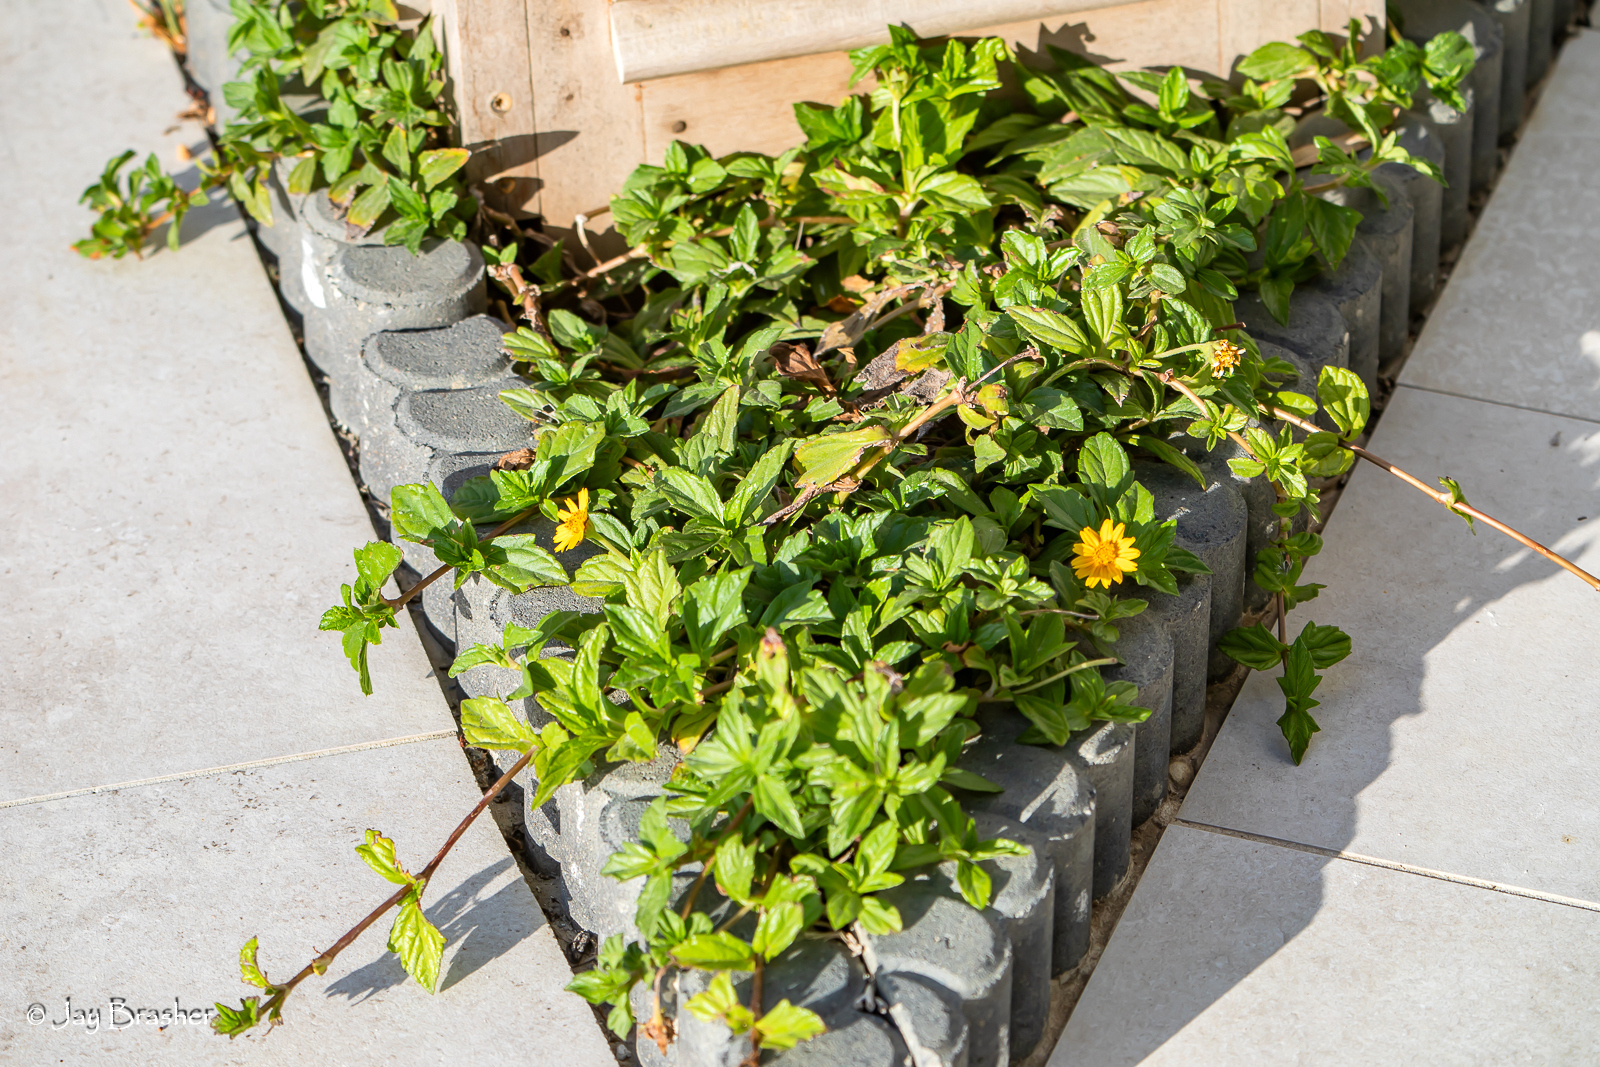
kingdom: Plantae
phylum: Tracheophyta
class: Magnoliopsida
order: Asterales
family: Asteraceae
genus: Sphagneticola
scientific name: Sphagneticola trilobata
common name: Bay biscayne creeping-oxeye
